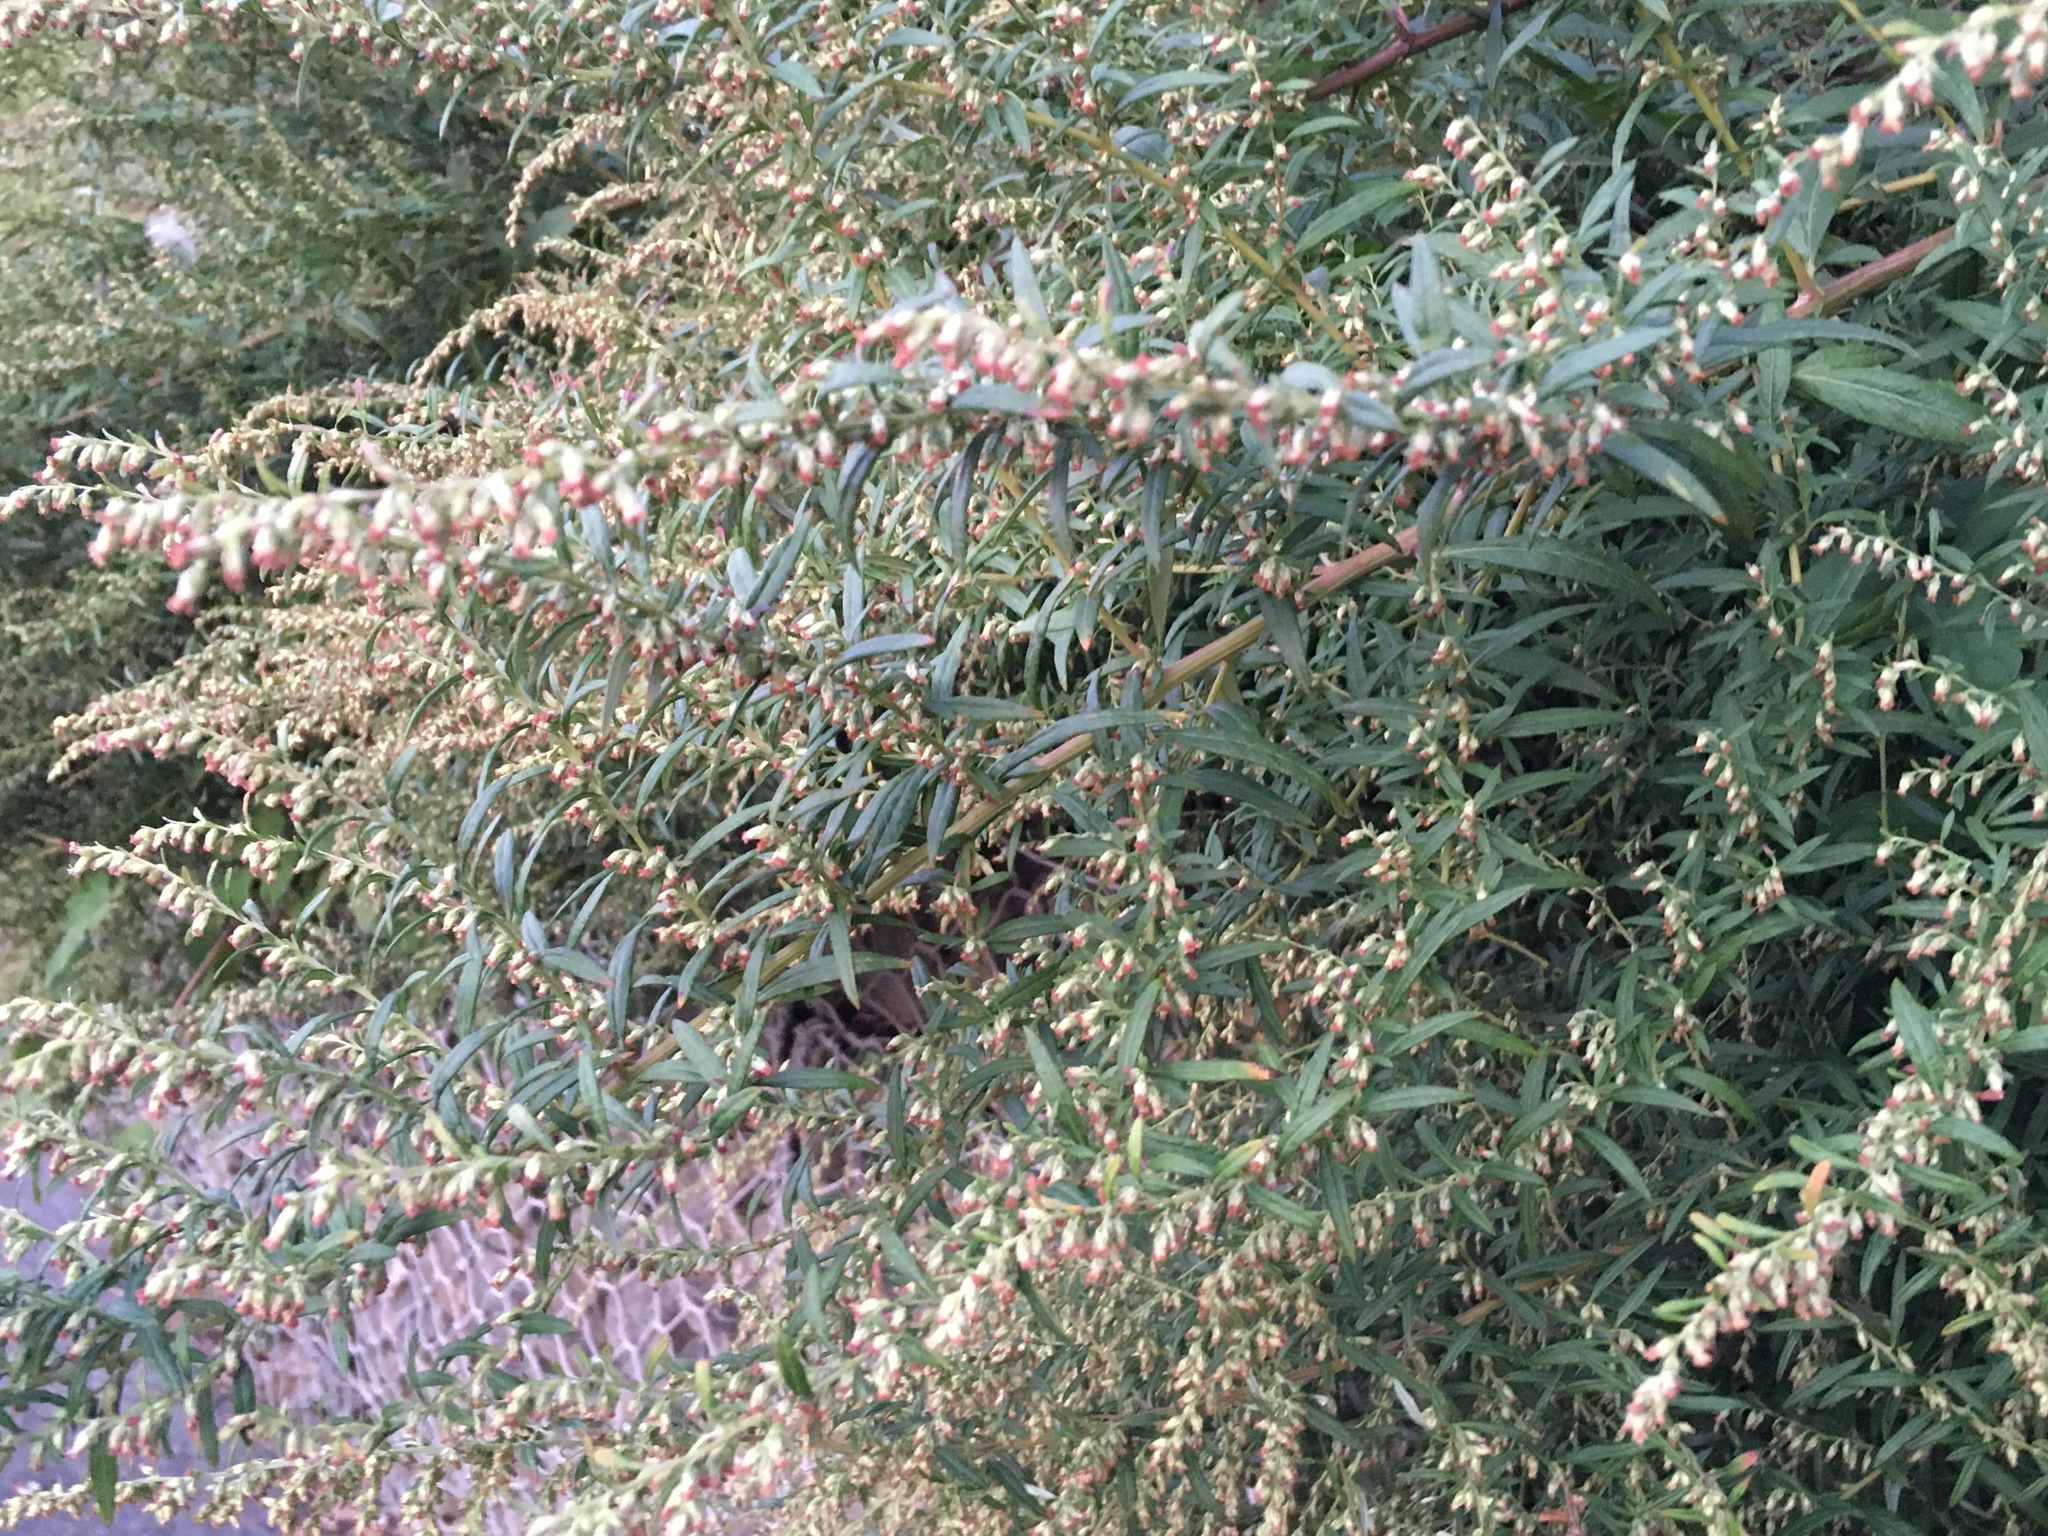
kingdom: Plantae
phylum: Tracheophyta
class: Magnoliopsida
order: Asterales
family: Asteraceae
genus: Artemisia
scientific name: Artemisia vulgaris
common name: Mugwort
